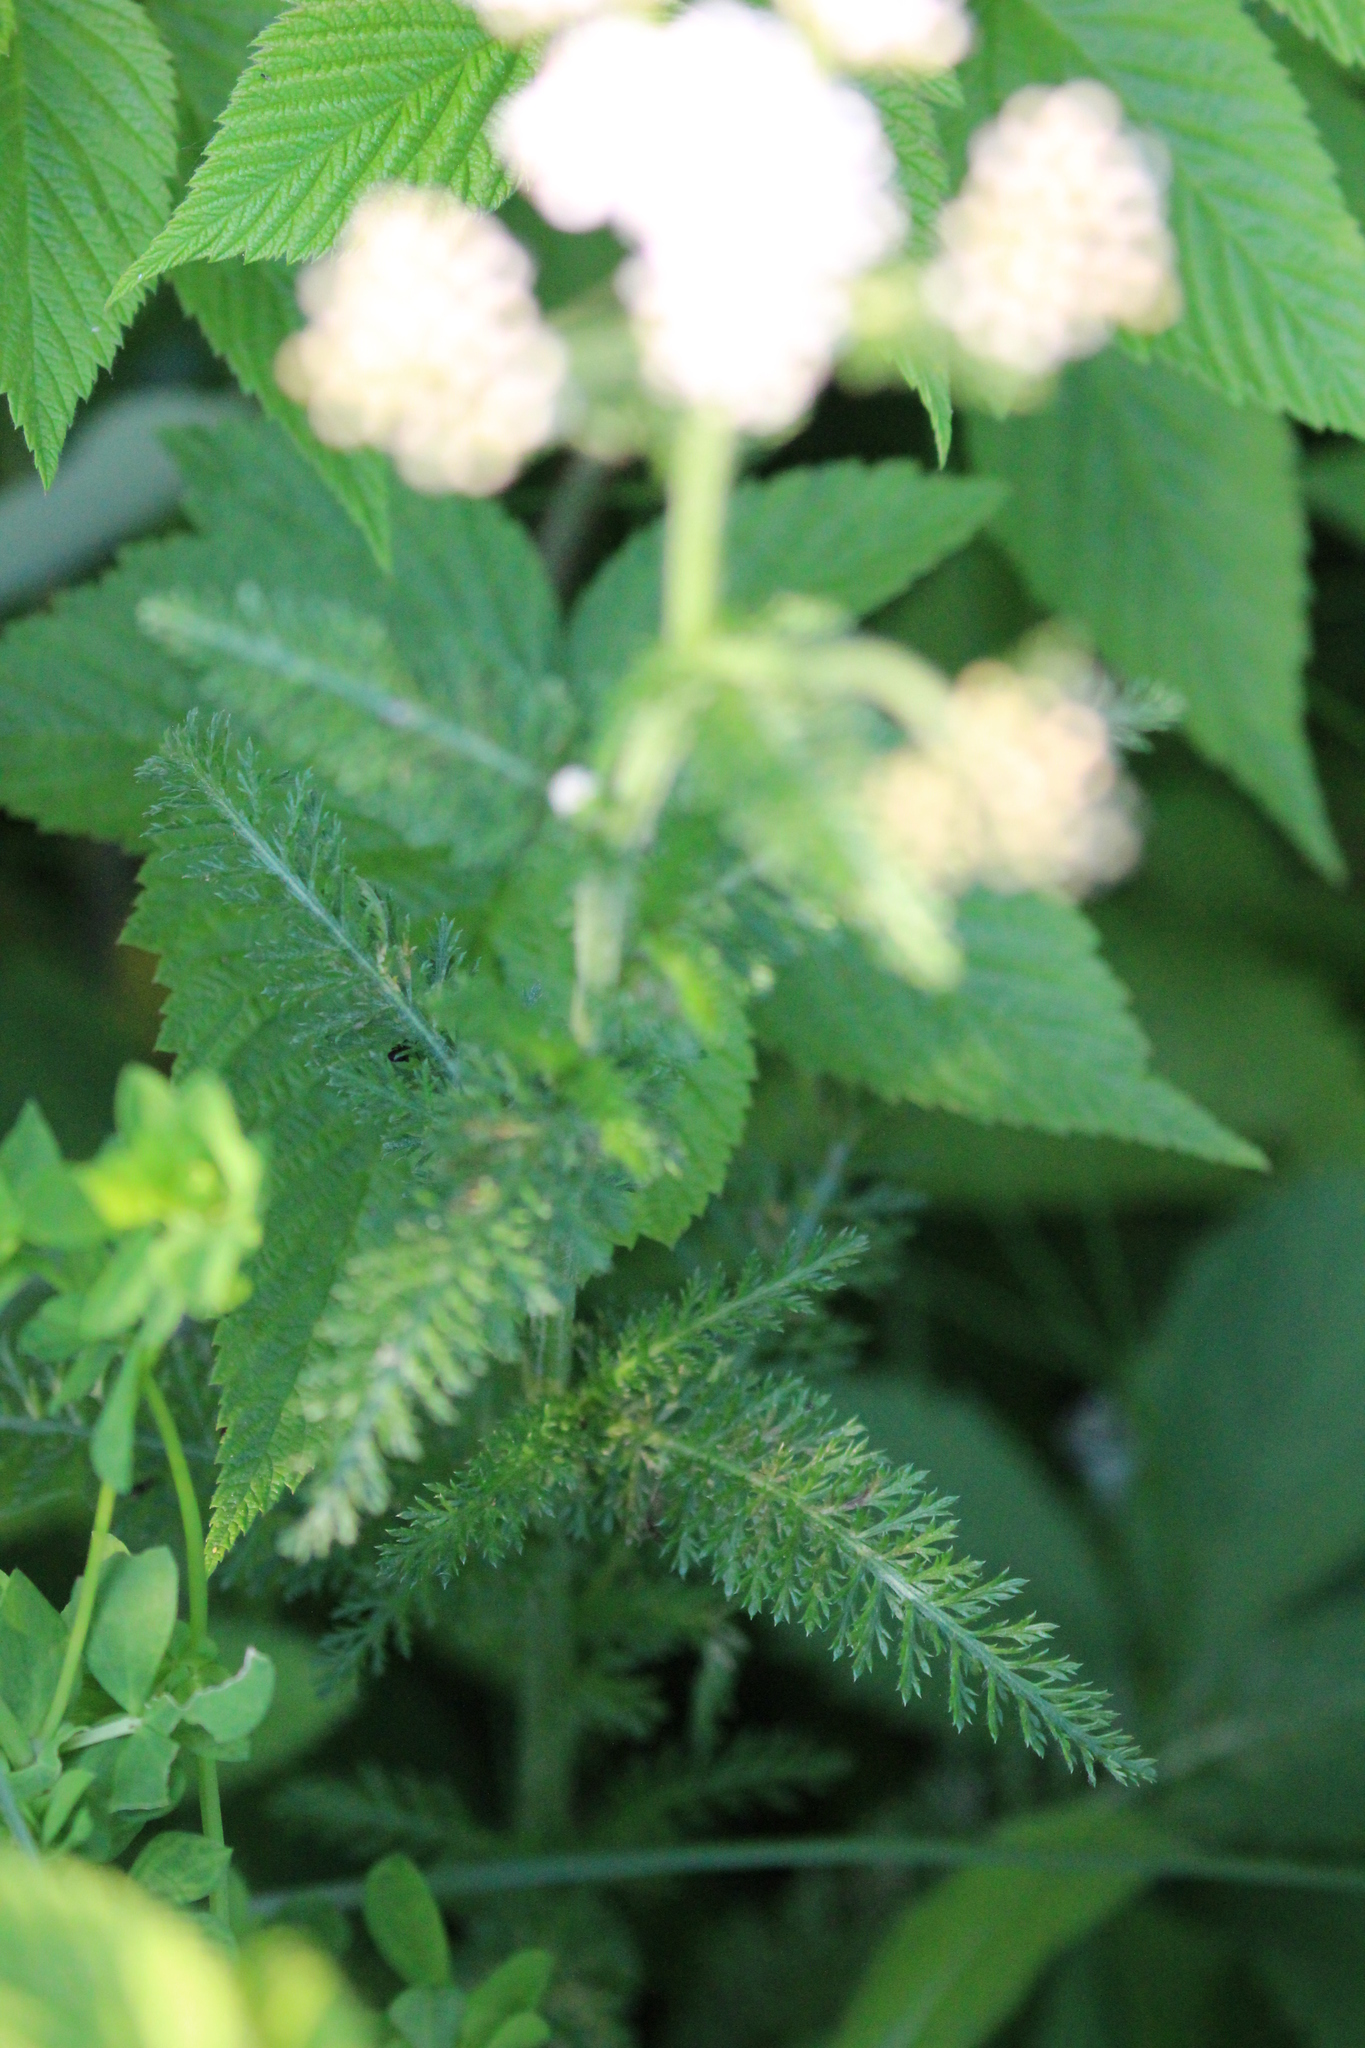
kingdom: Plantae
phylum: Tracheophyta
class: Magnoliopsida
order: Asterales
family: Asteraceae
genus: Achillea
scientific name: Achillea millefolium
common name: Yarrow
